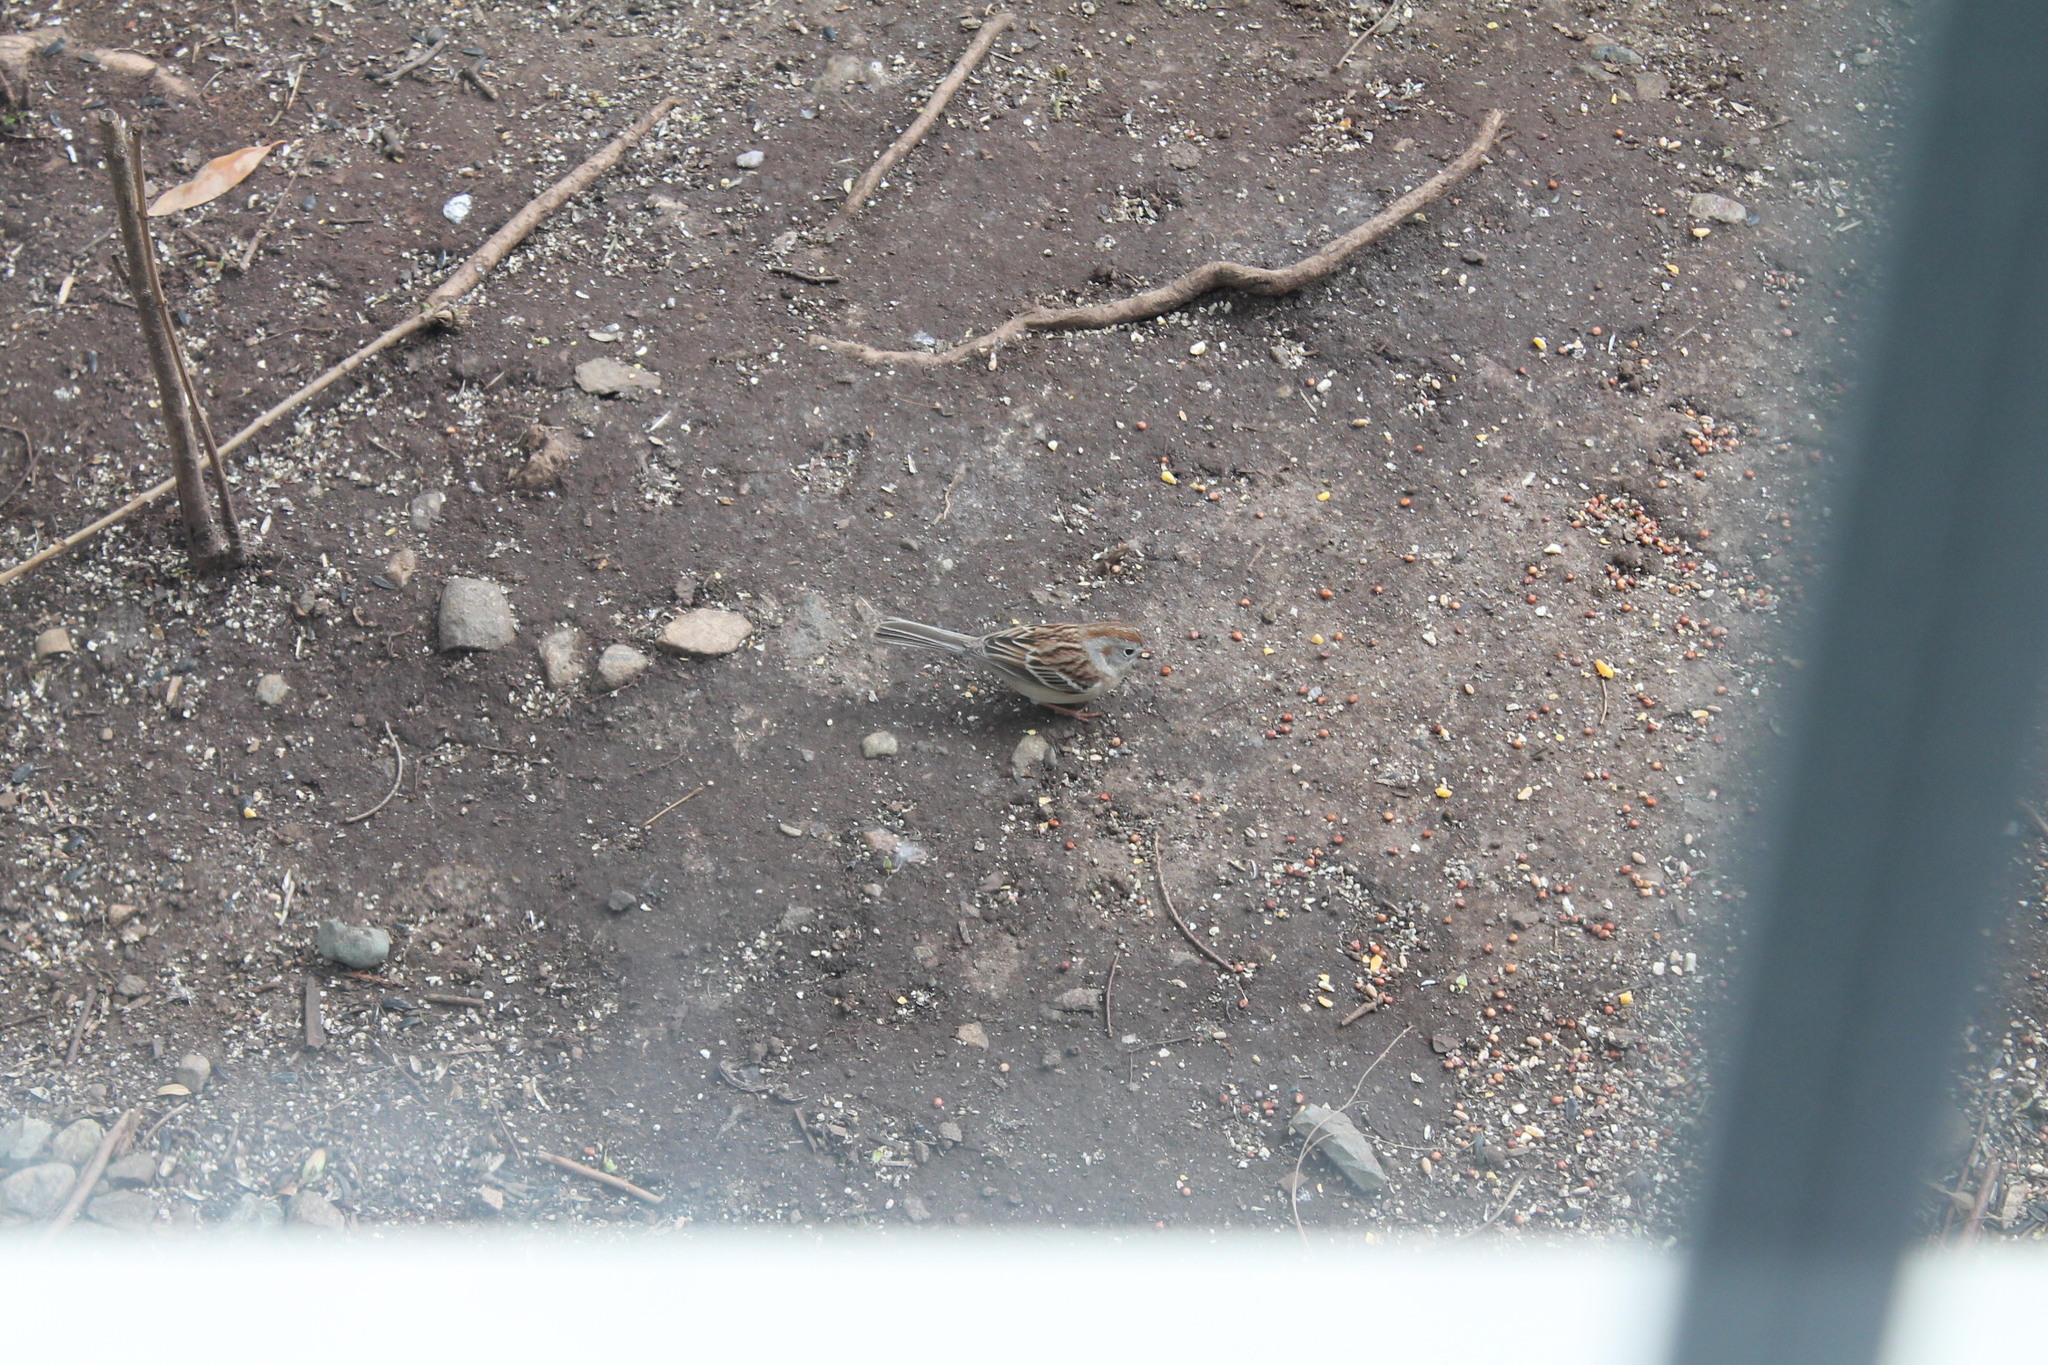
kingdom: Animalia
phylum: Chordata
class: Aves
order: Passeriformes
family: Passerellidae
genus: Spizella
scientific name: Spizella pusilla
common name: Field sparrow
